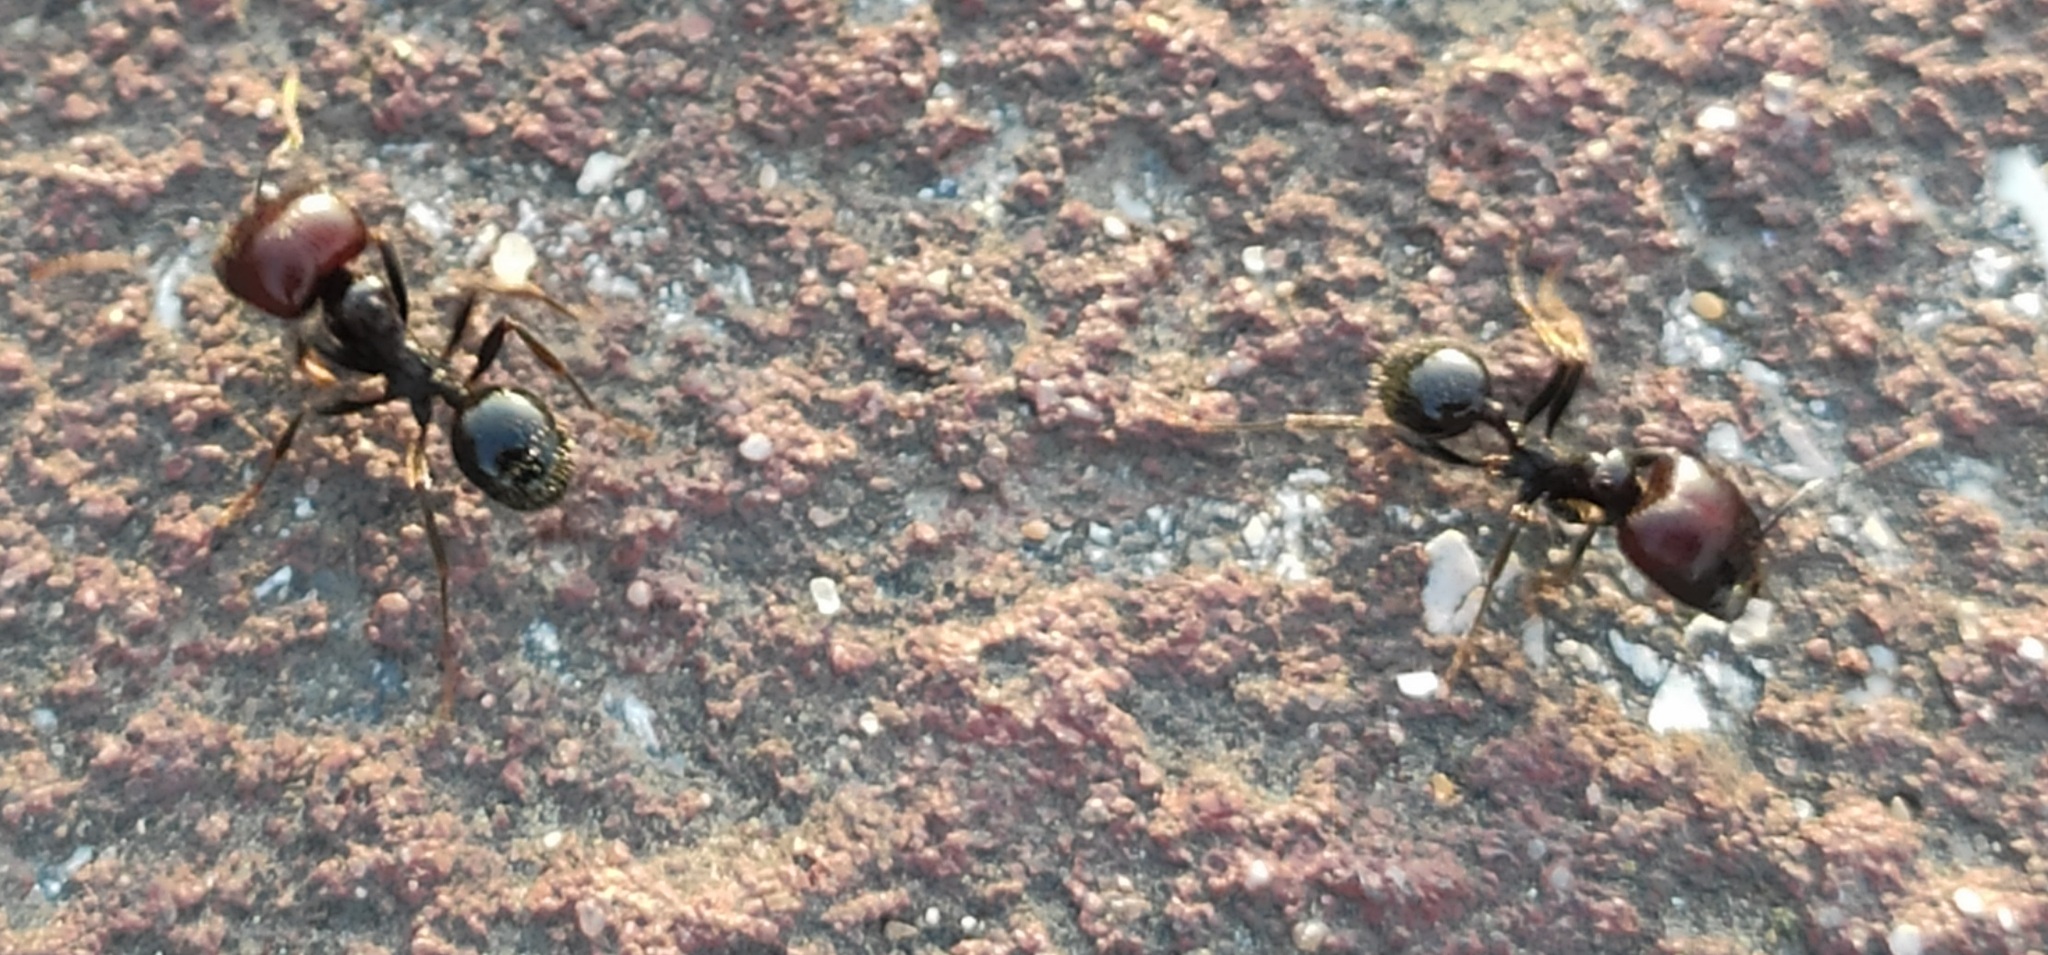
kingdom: Animalia
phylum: Arthropoda
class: Insecta
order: Hymenoptera
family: Formicidae
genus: Messor
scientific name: Messor barbarus
